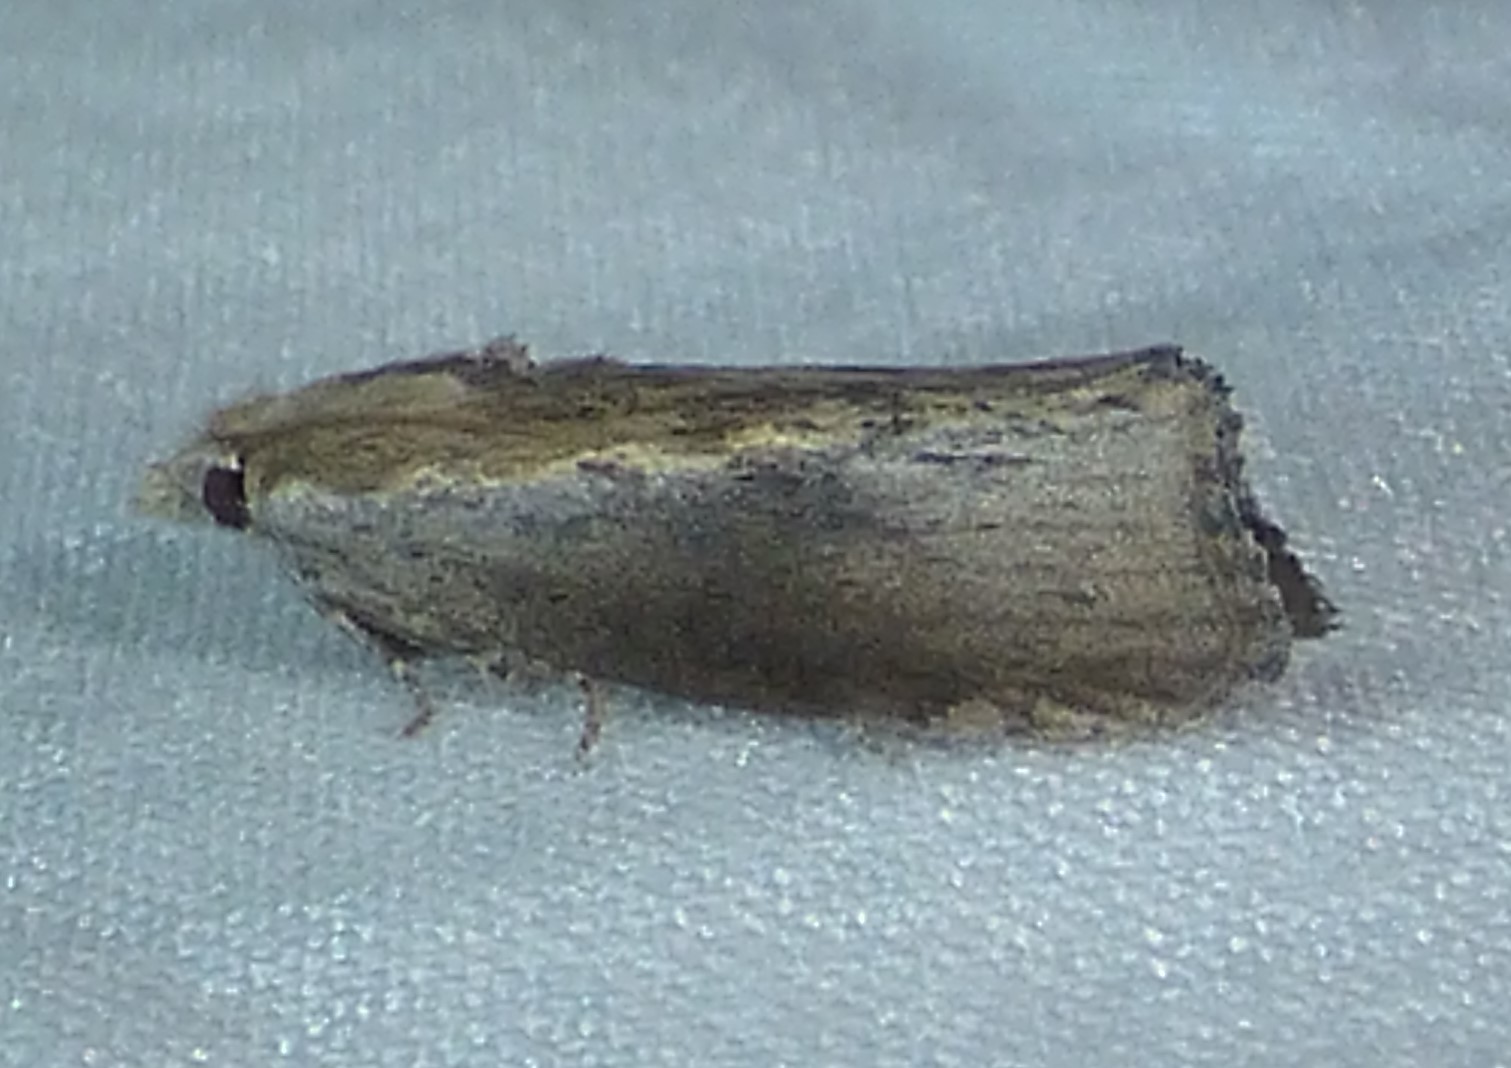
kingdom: Animalia
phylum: Arthropoda
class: Insecta
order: Lepidoptera
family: Pyralidae
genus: Galleria
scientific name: Galleria mellonella
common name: Greater wax moth
